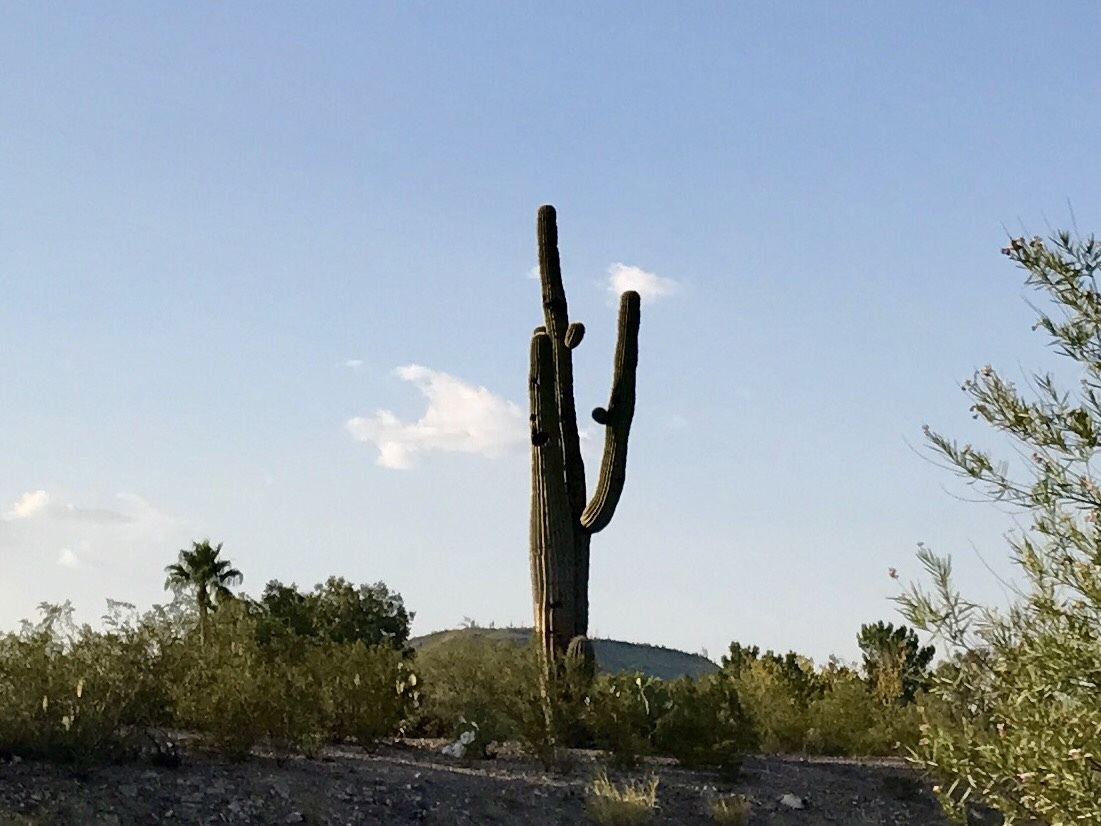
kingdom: Plantae
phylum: Tracheophyta
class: Magnoliopsida
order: Caryophyllales
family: Cactaceae
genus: Carnegiea
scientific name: Carnegiea gigantea
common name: Saguaro
